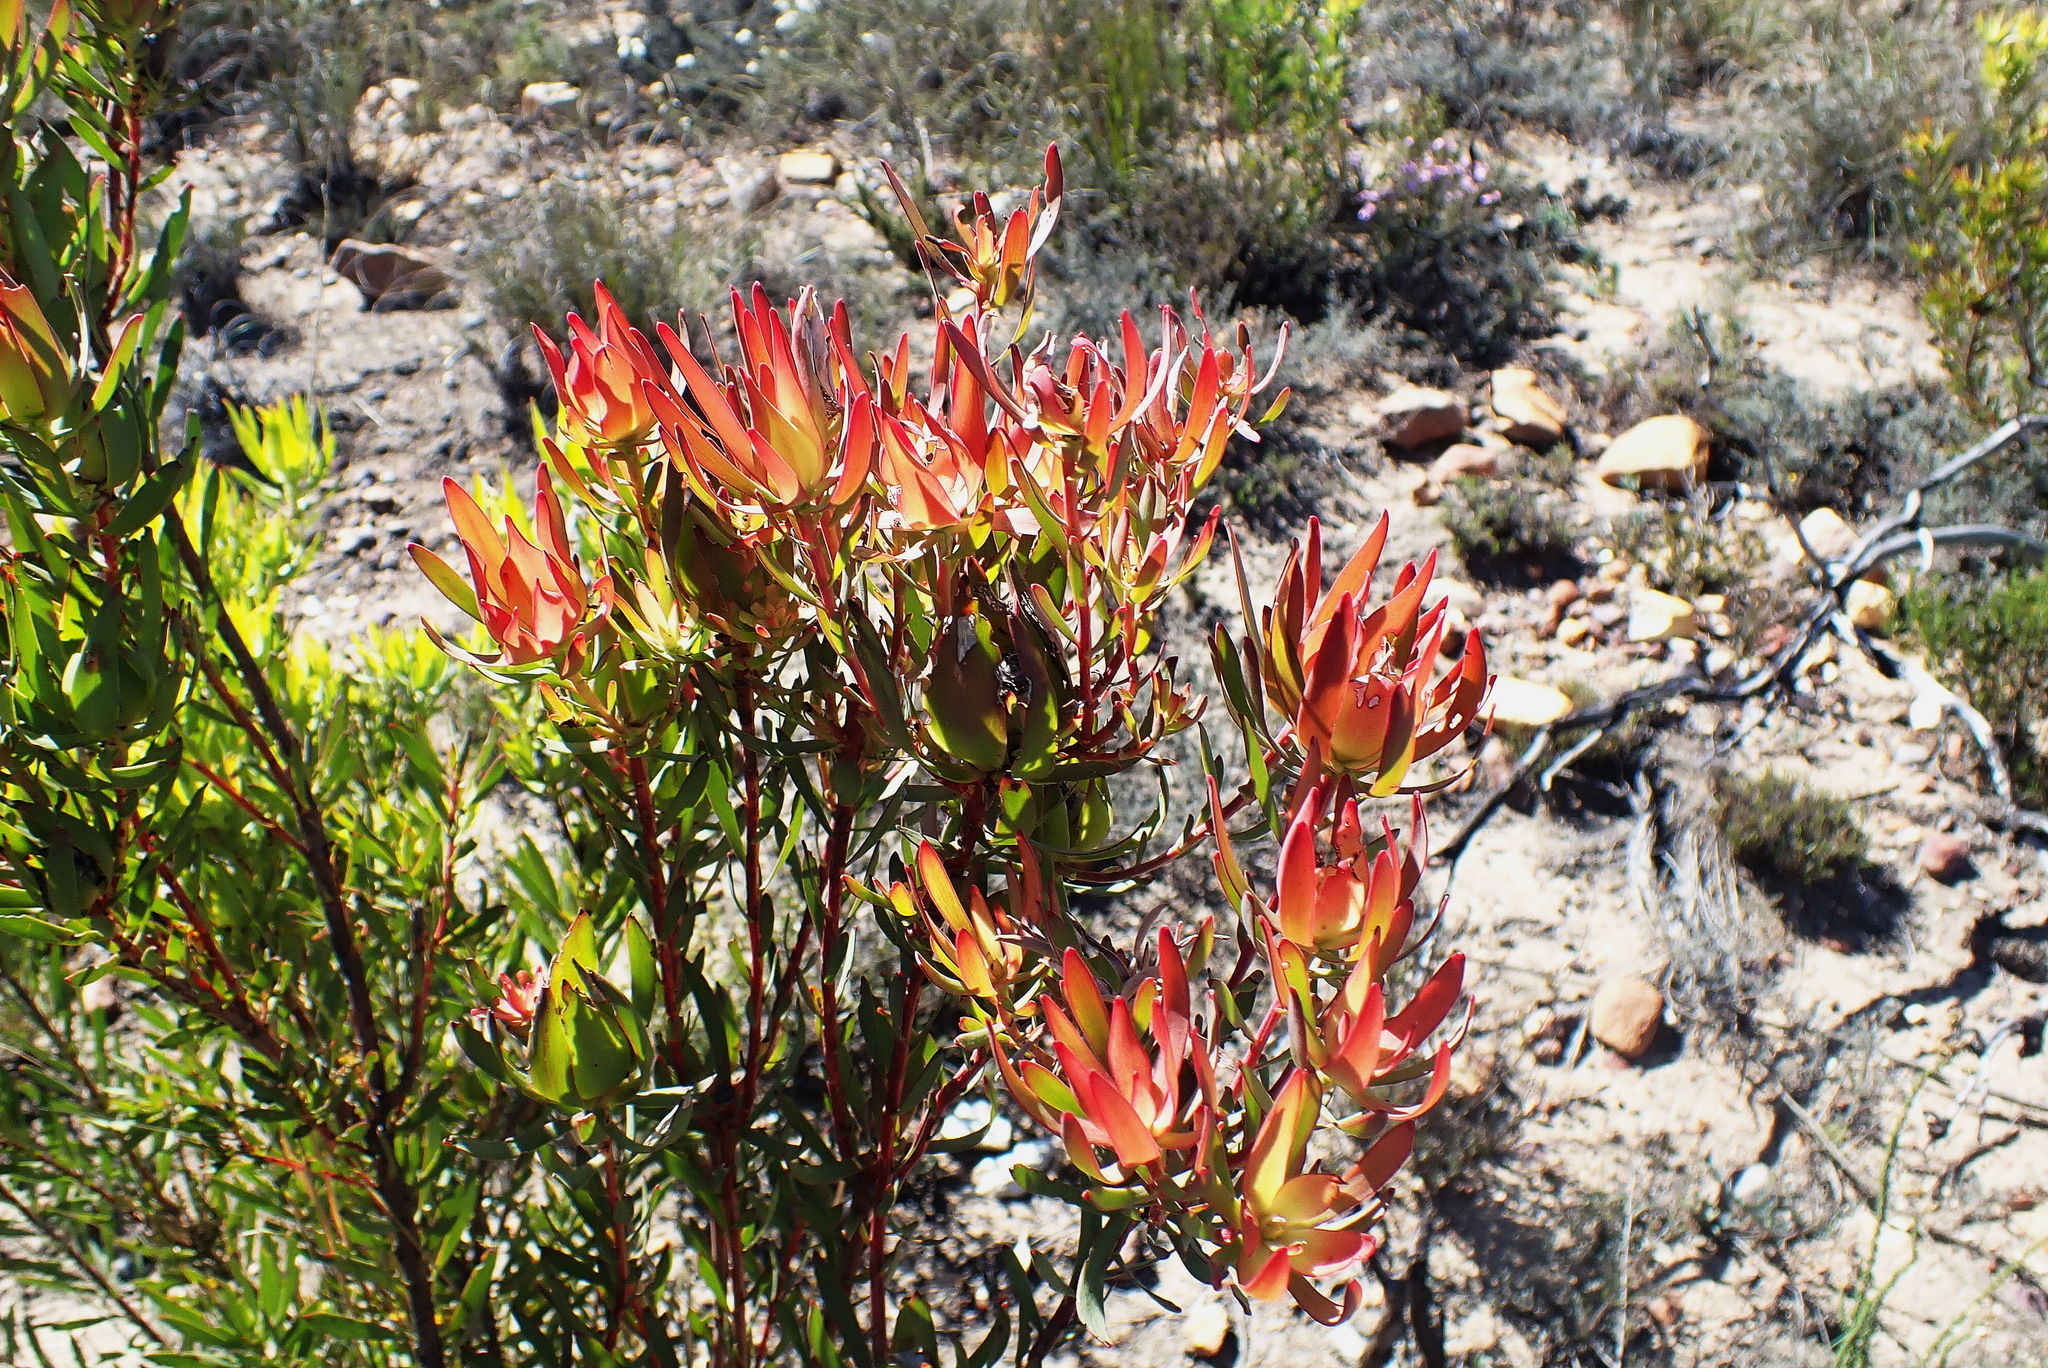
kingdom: Plantae
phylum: Tracheophyta
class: Magnoliopsida
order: Proteales
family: Proteaceae
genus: Leucadendron
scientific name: Leucadendron salignum
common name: Common sunshine conebush
